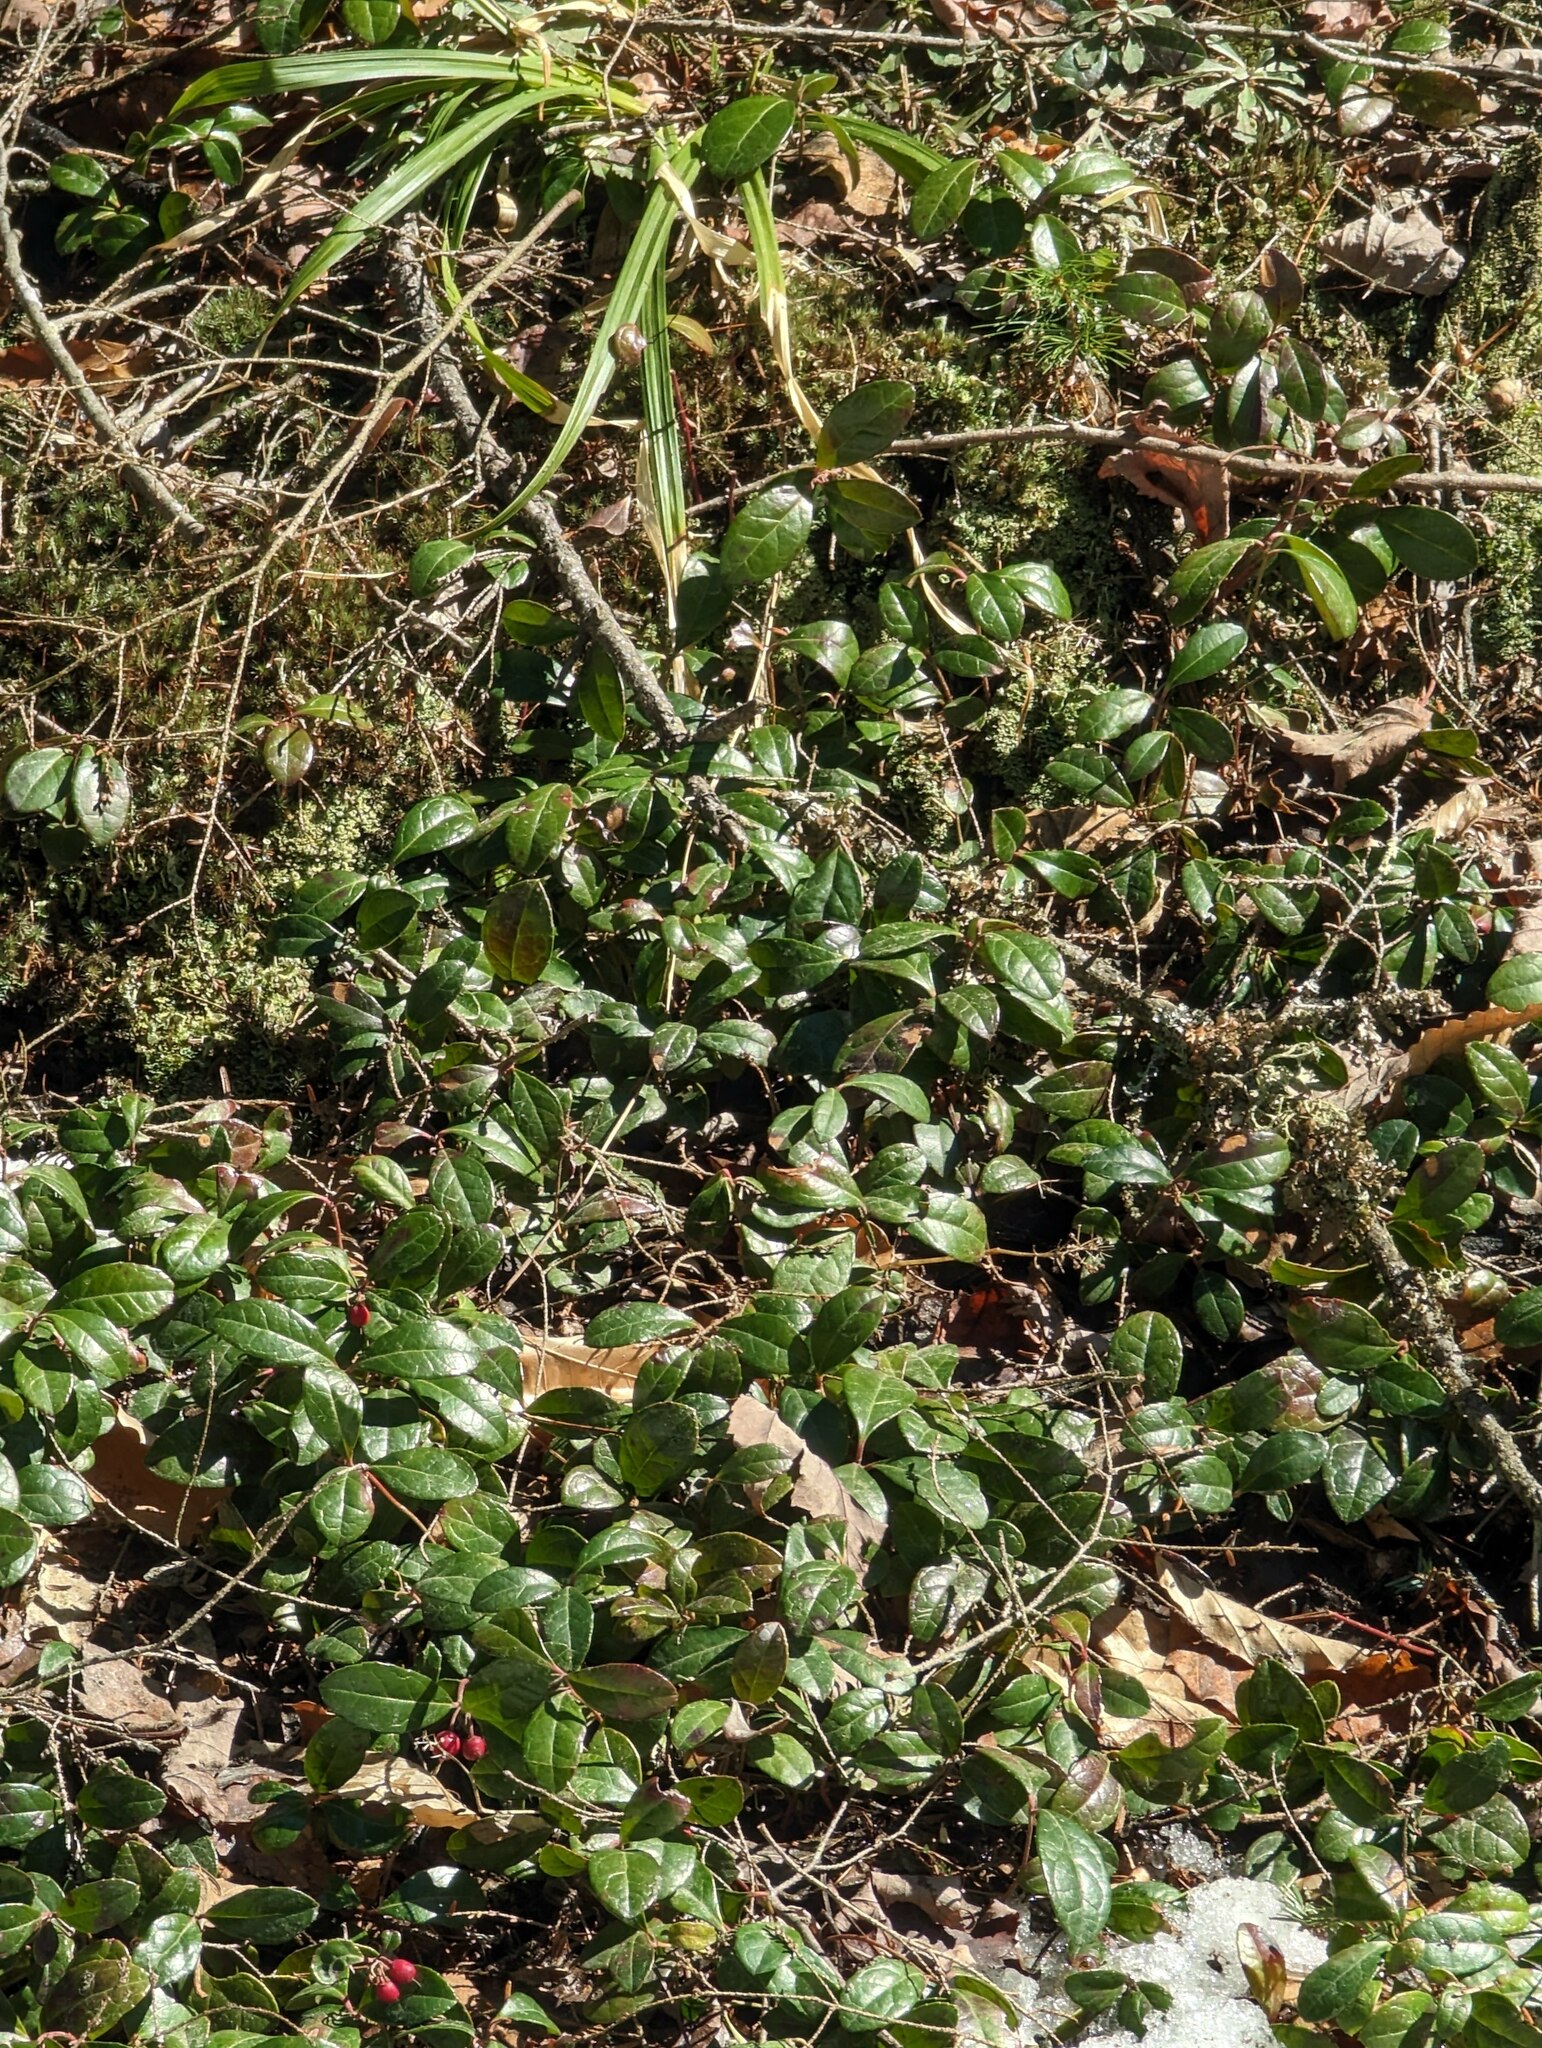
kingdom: Plantae
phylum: Tracheophyta
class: Magnoliopsida
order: Ericales
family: Ericaceae
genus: Gaultheria
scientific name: Gaultheria procumbens
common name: Checkerberry
